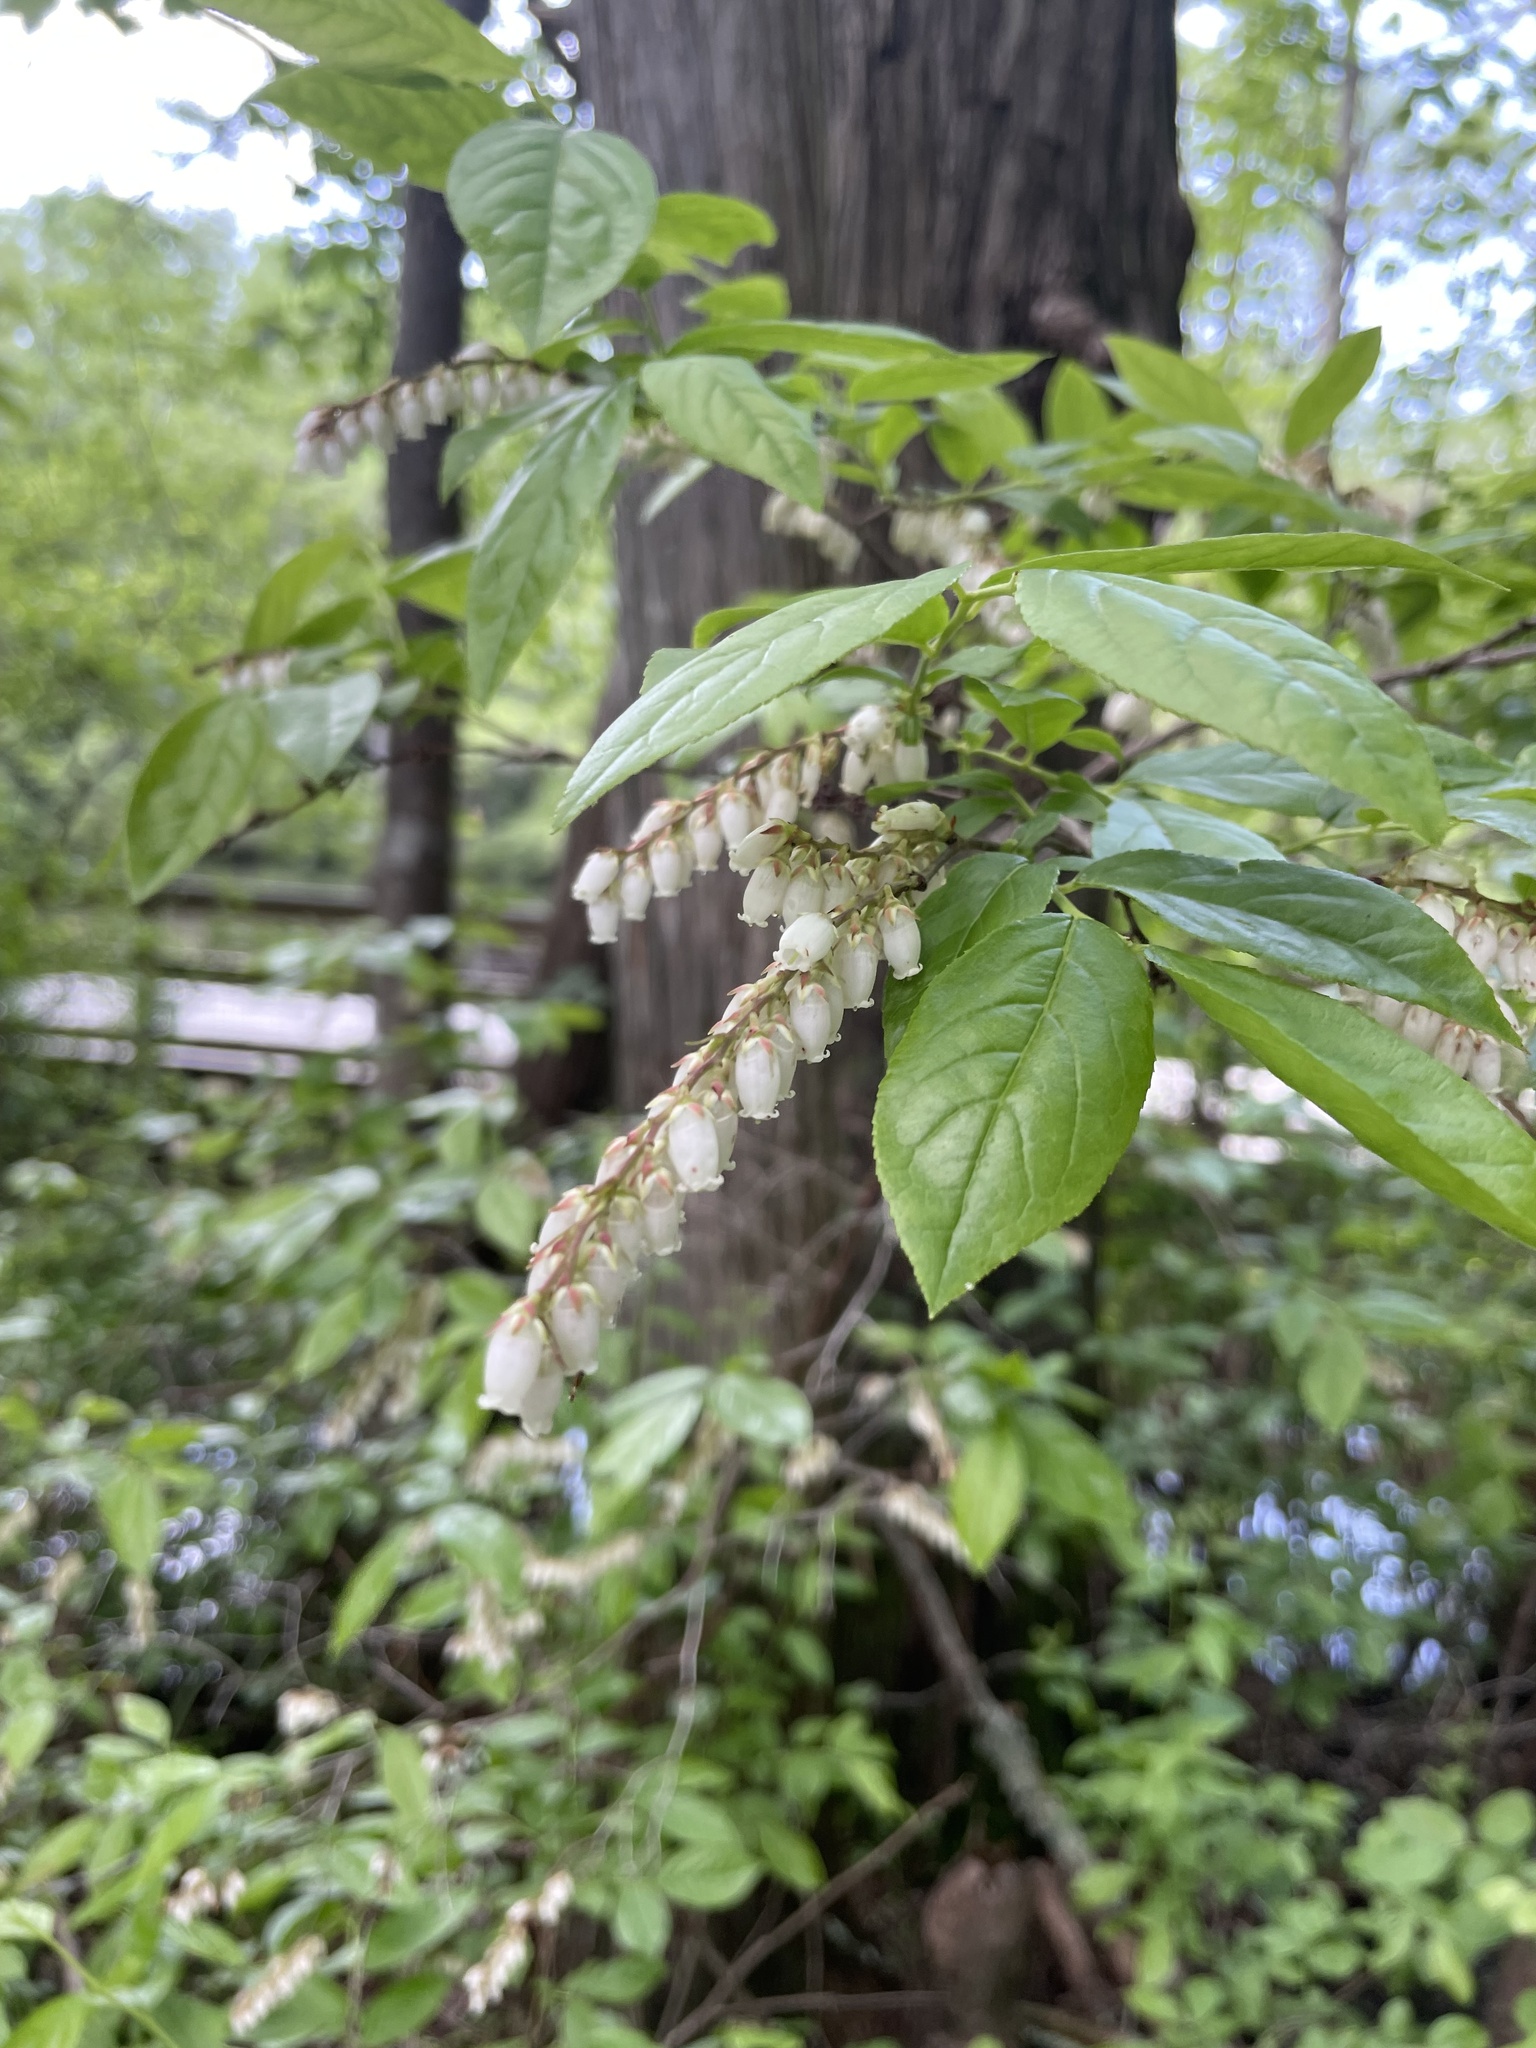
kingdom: Plantae
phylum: Tracheophyta
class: Magnoliopsida
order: Ericales
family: Ericaceae
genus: Eubotrys
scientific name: Eubotrys racemosa
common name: Fetterbush
